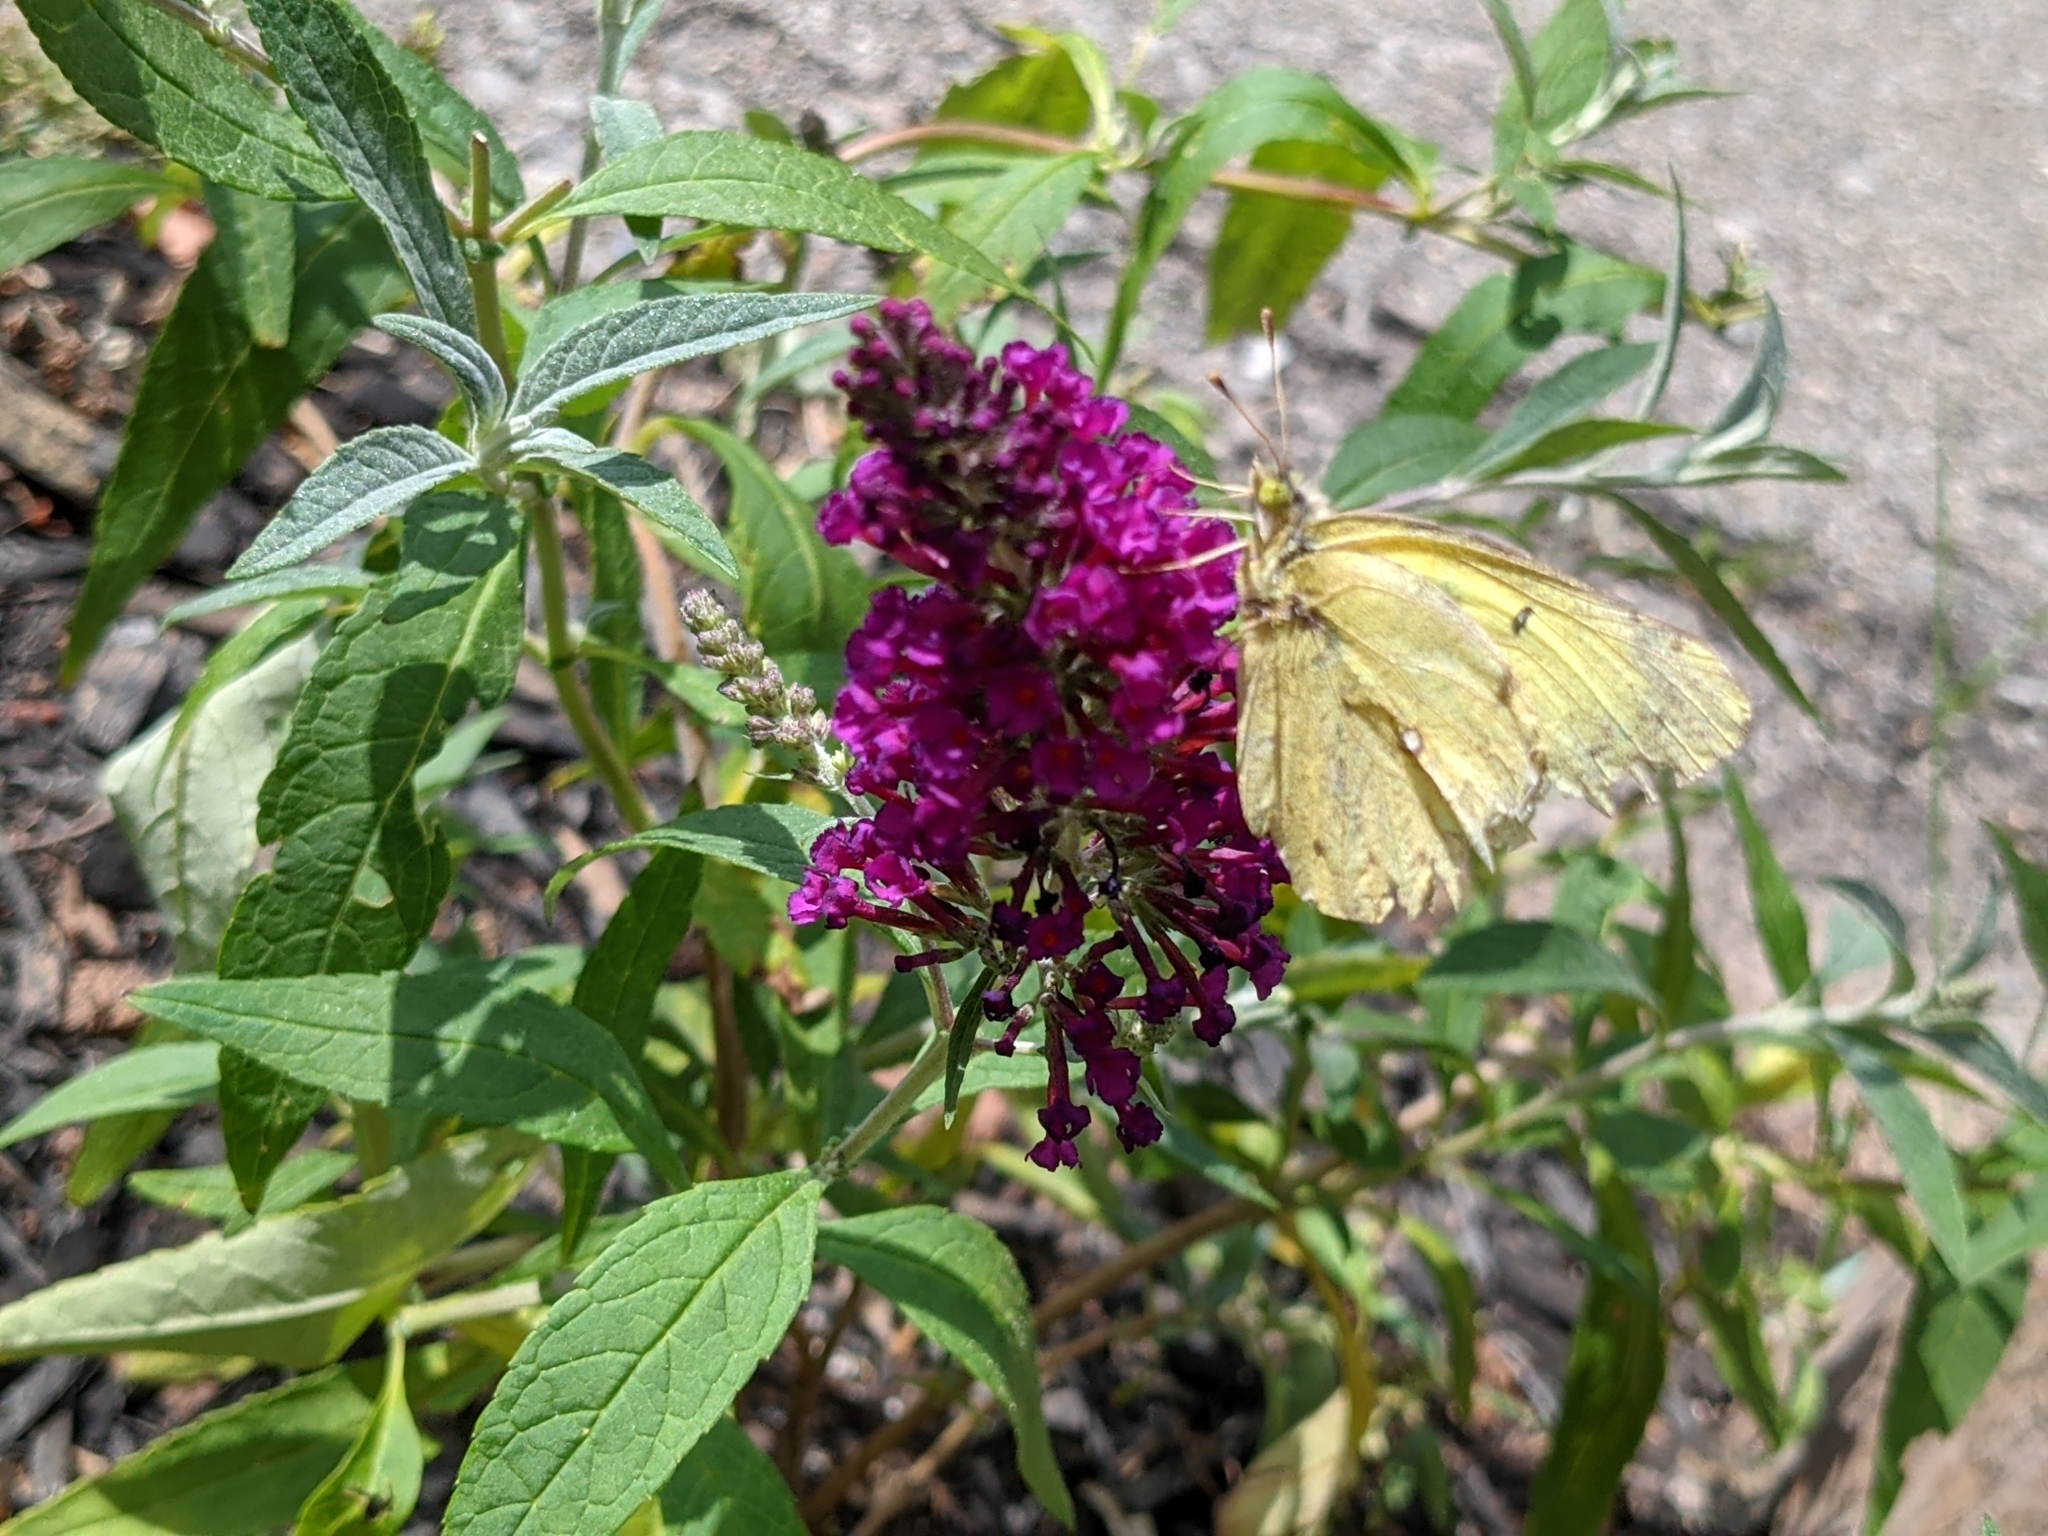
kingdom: Animalia
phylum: Arthropoda
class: Insecta
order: Lepidoptera
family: Pieridae
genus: Colias
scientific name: Colias philodice
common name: Clouded sulphur
